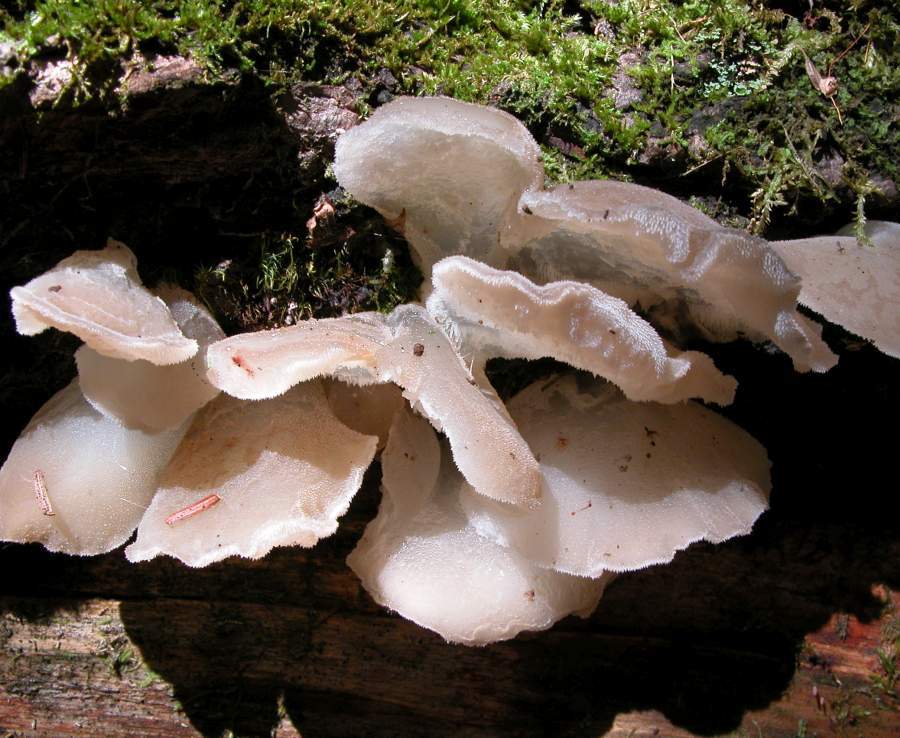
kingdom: Fungi
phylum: Basidiomycota
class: Agaricomycetes
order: Auriculariales
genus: Pseudohydnum
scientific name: Pseudohydnum gelatinosum
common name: Jelly tongue
